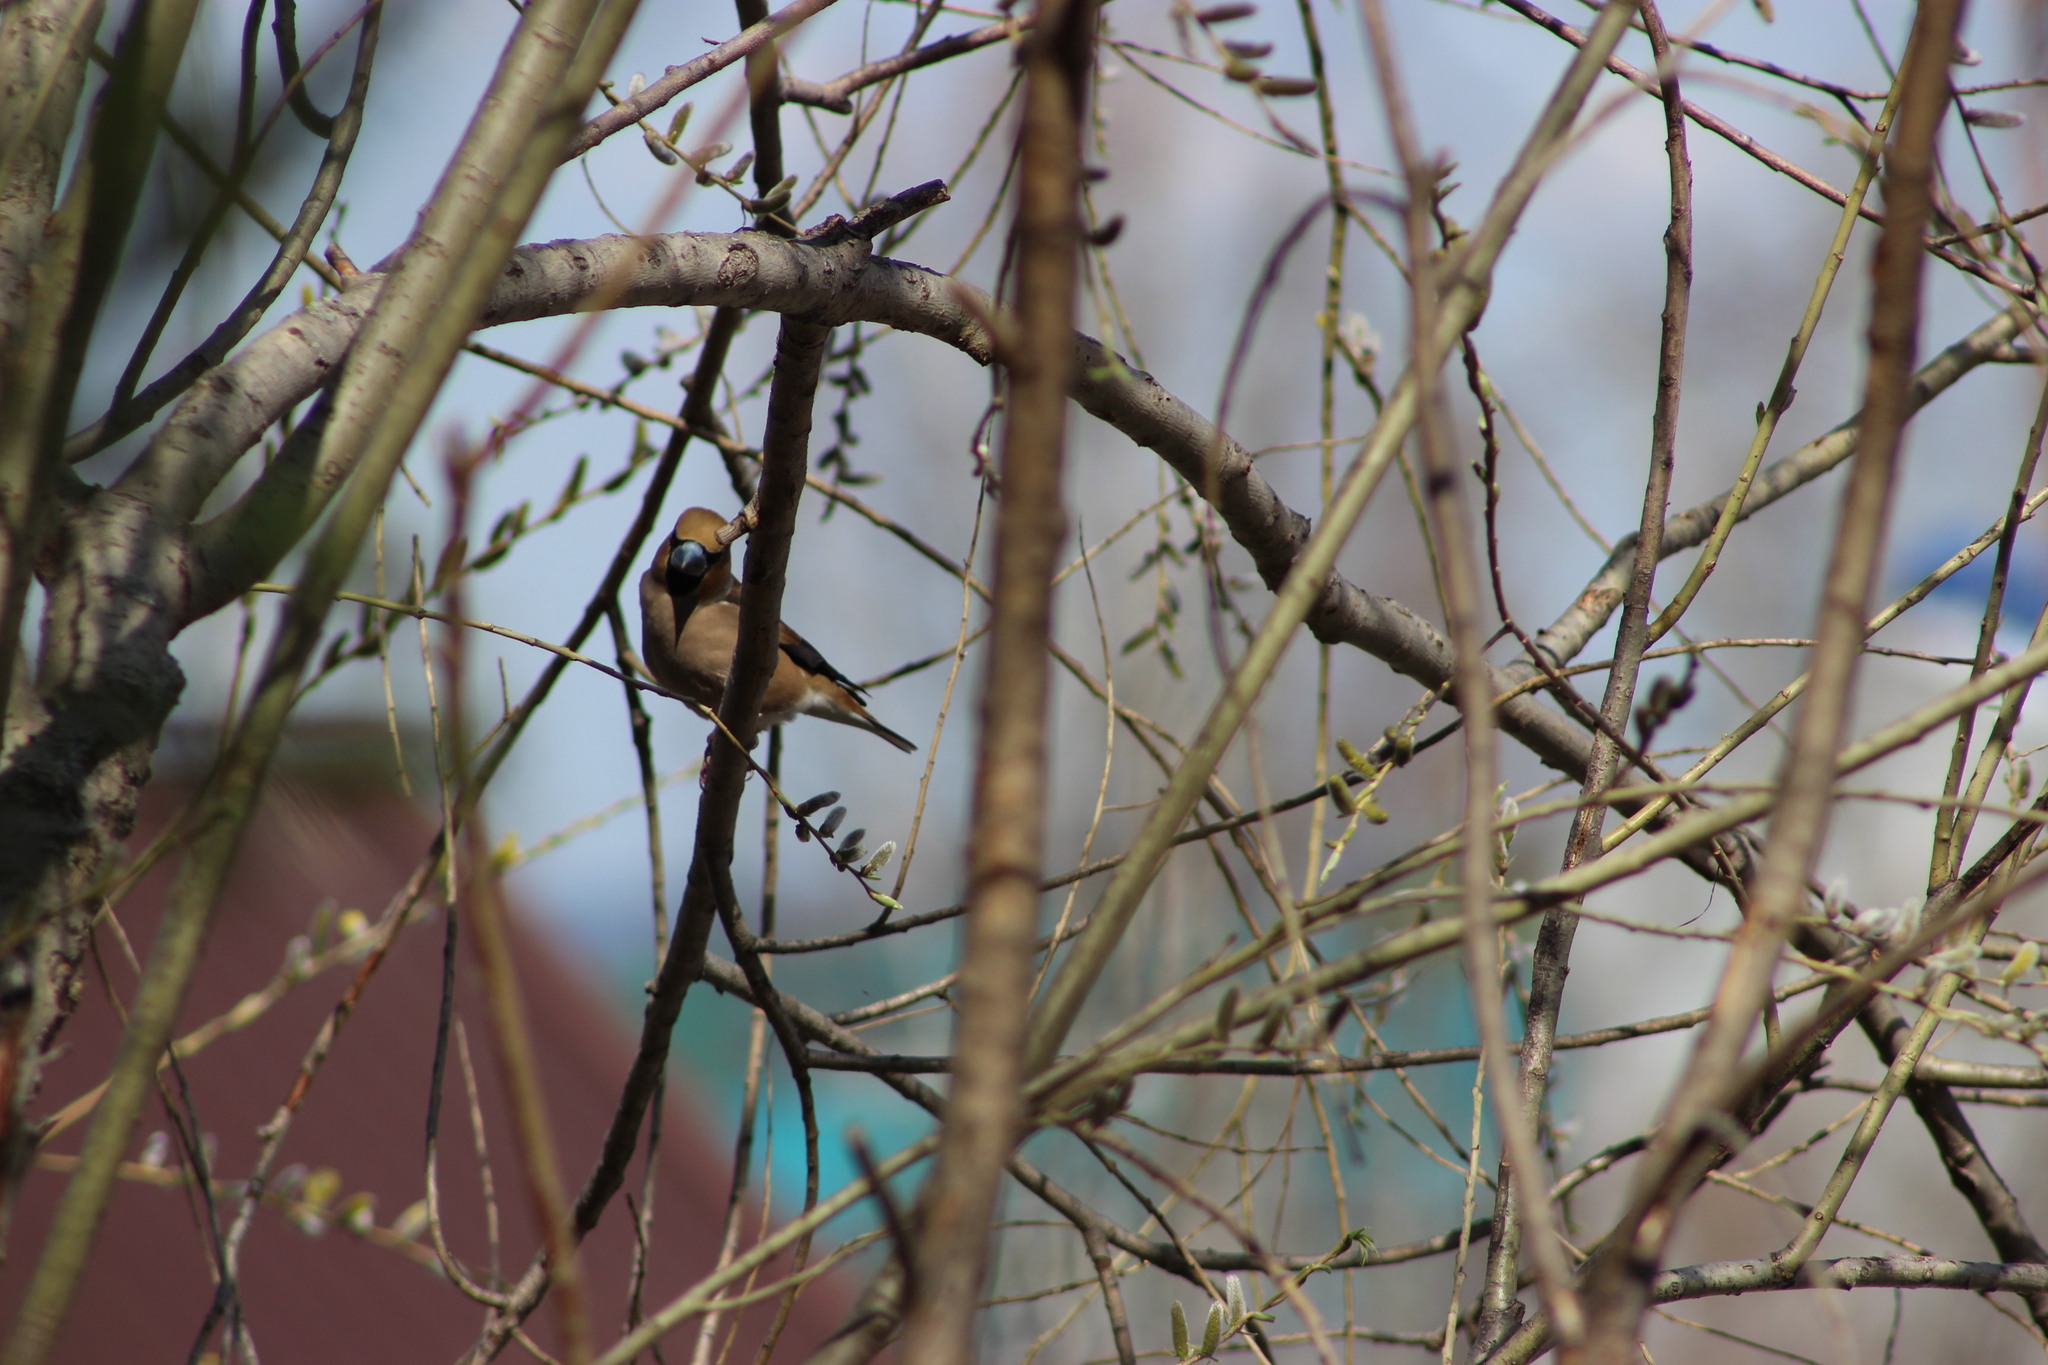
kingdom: Animalia
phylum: Chordata
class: Aves
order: Passeriformes
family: Fringillidae
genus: Coccothraustes
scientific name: Coccothraustes coccothraustes
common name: Hawfinch
